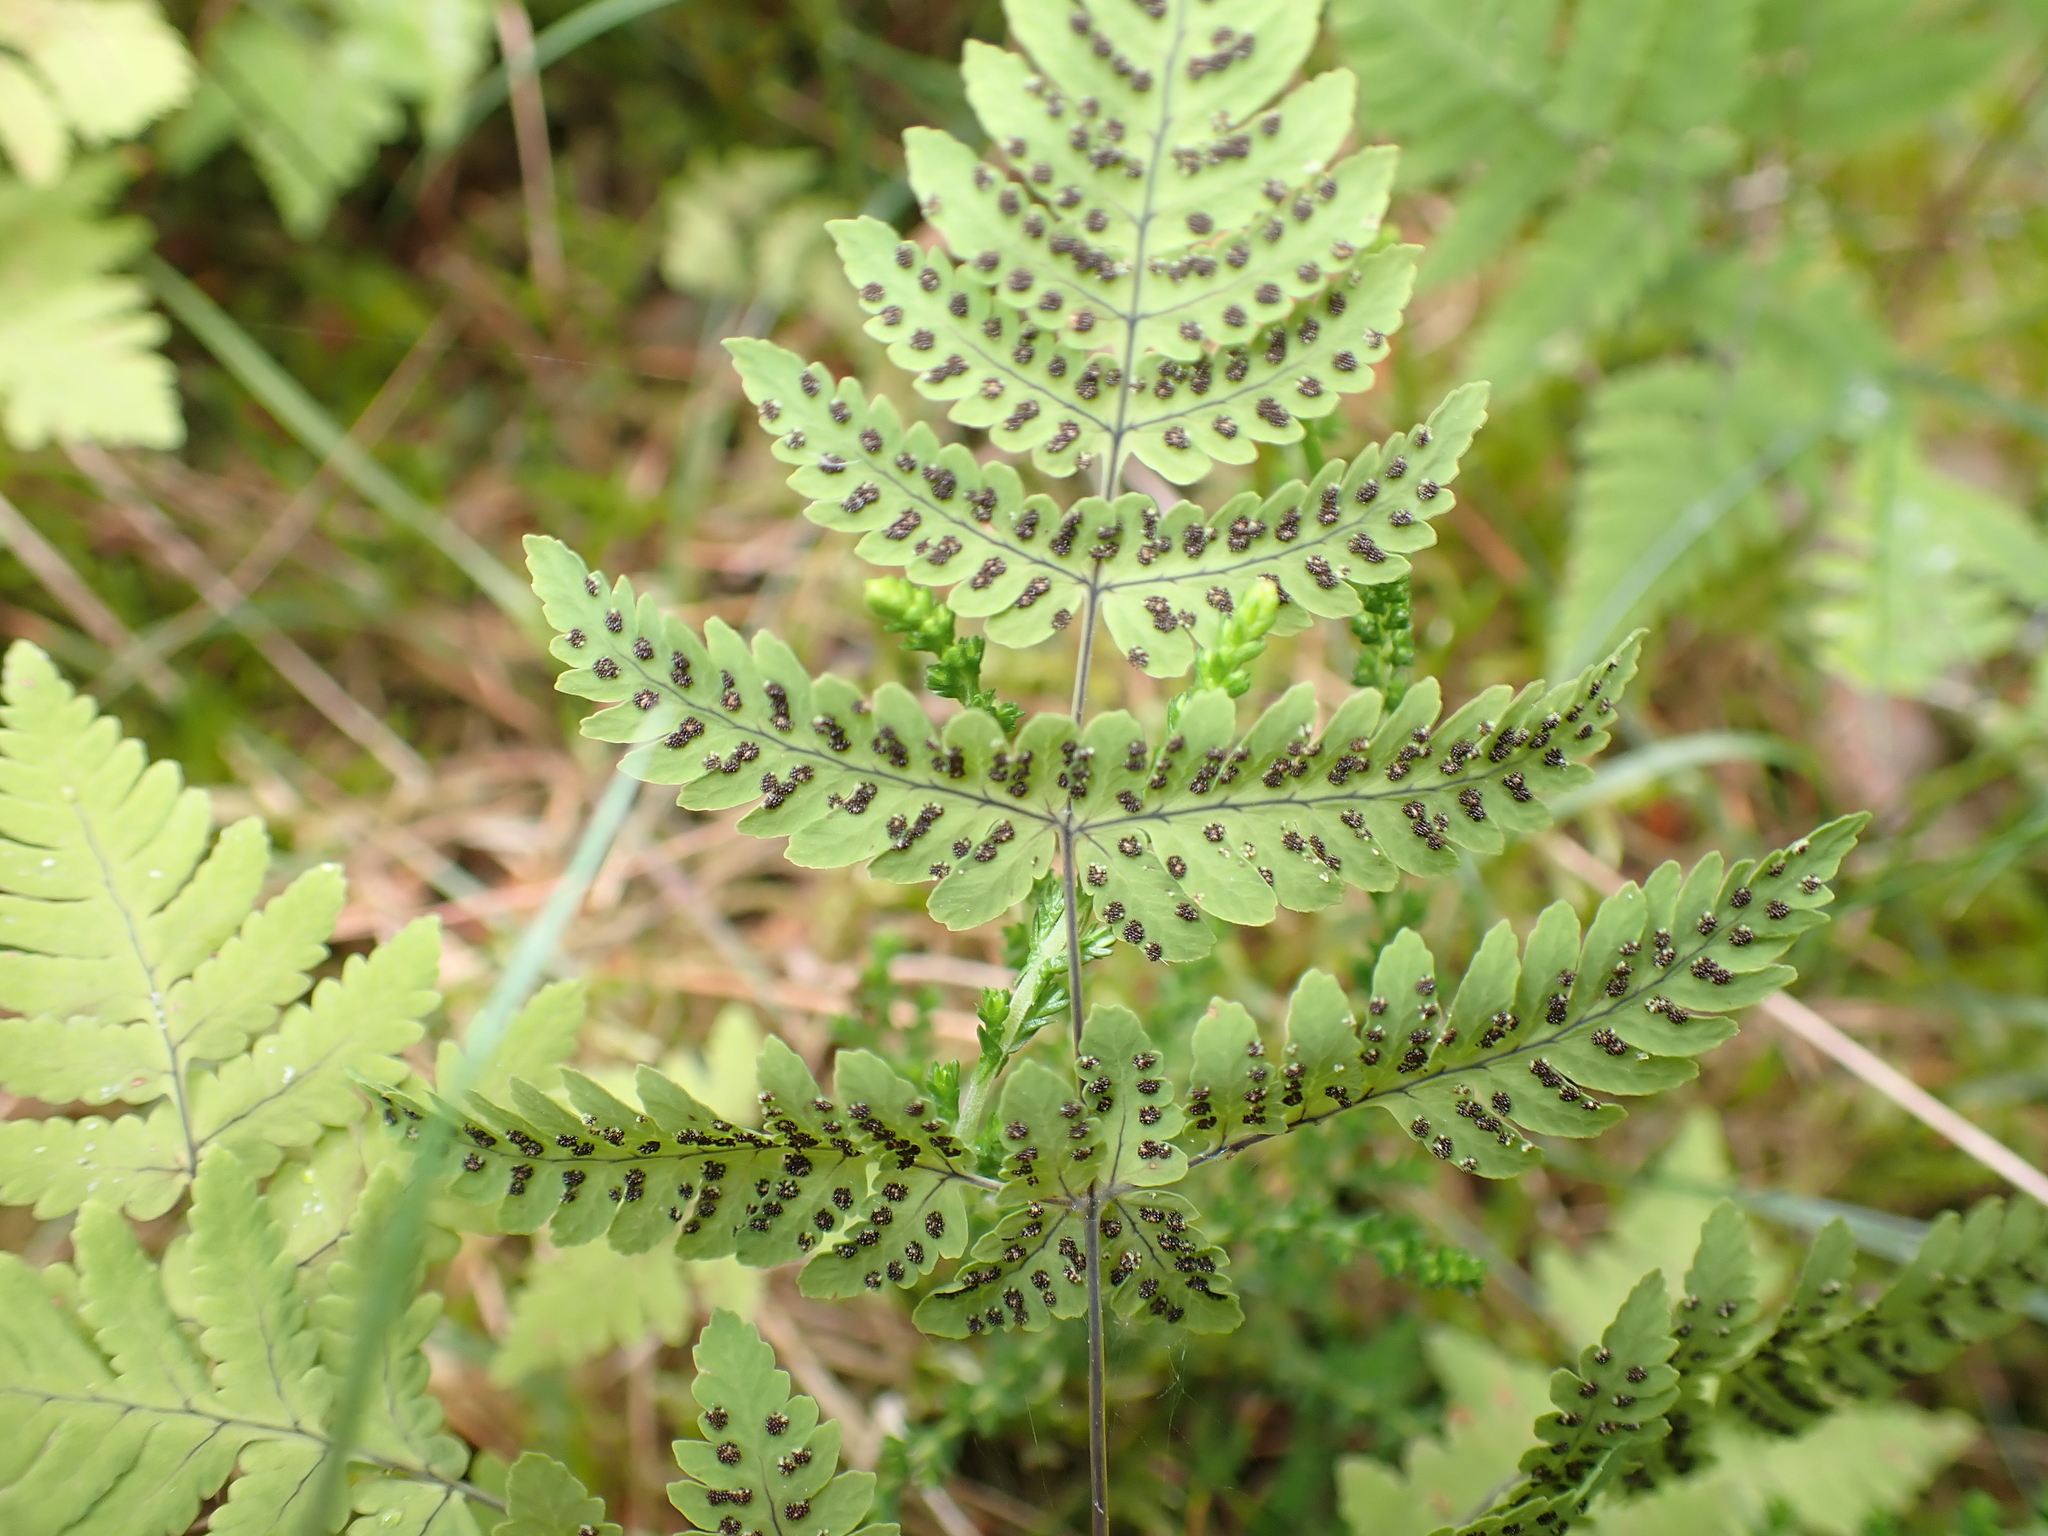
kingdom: Plantae
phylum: Tracheophyta
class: Polypodiopsida
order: Polypodiales
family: Cystopteridaceae
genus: Gymnocarpium
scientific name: Gymnocarpium dryopteris
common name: Oak fern
